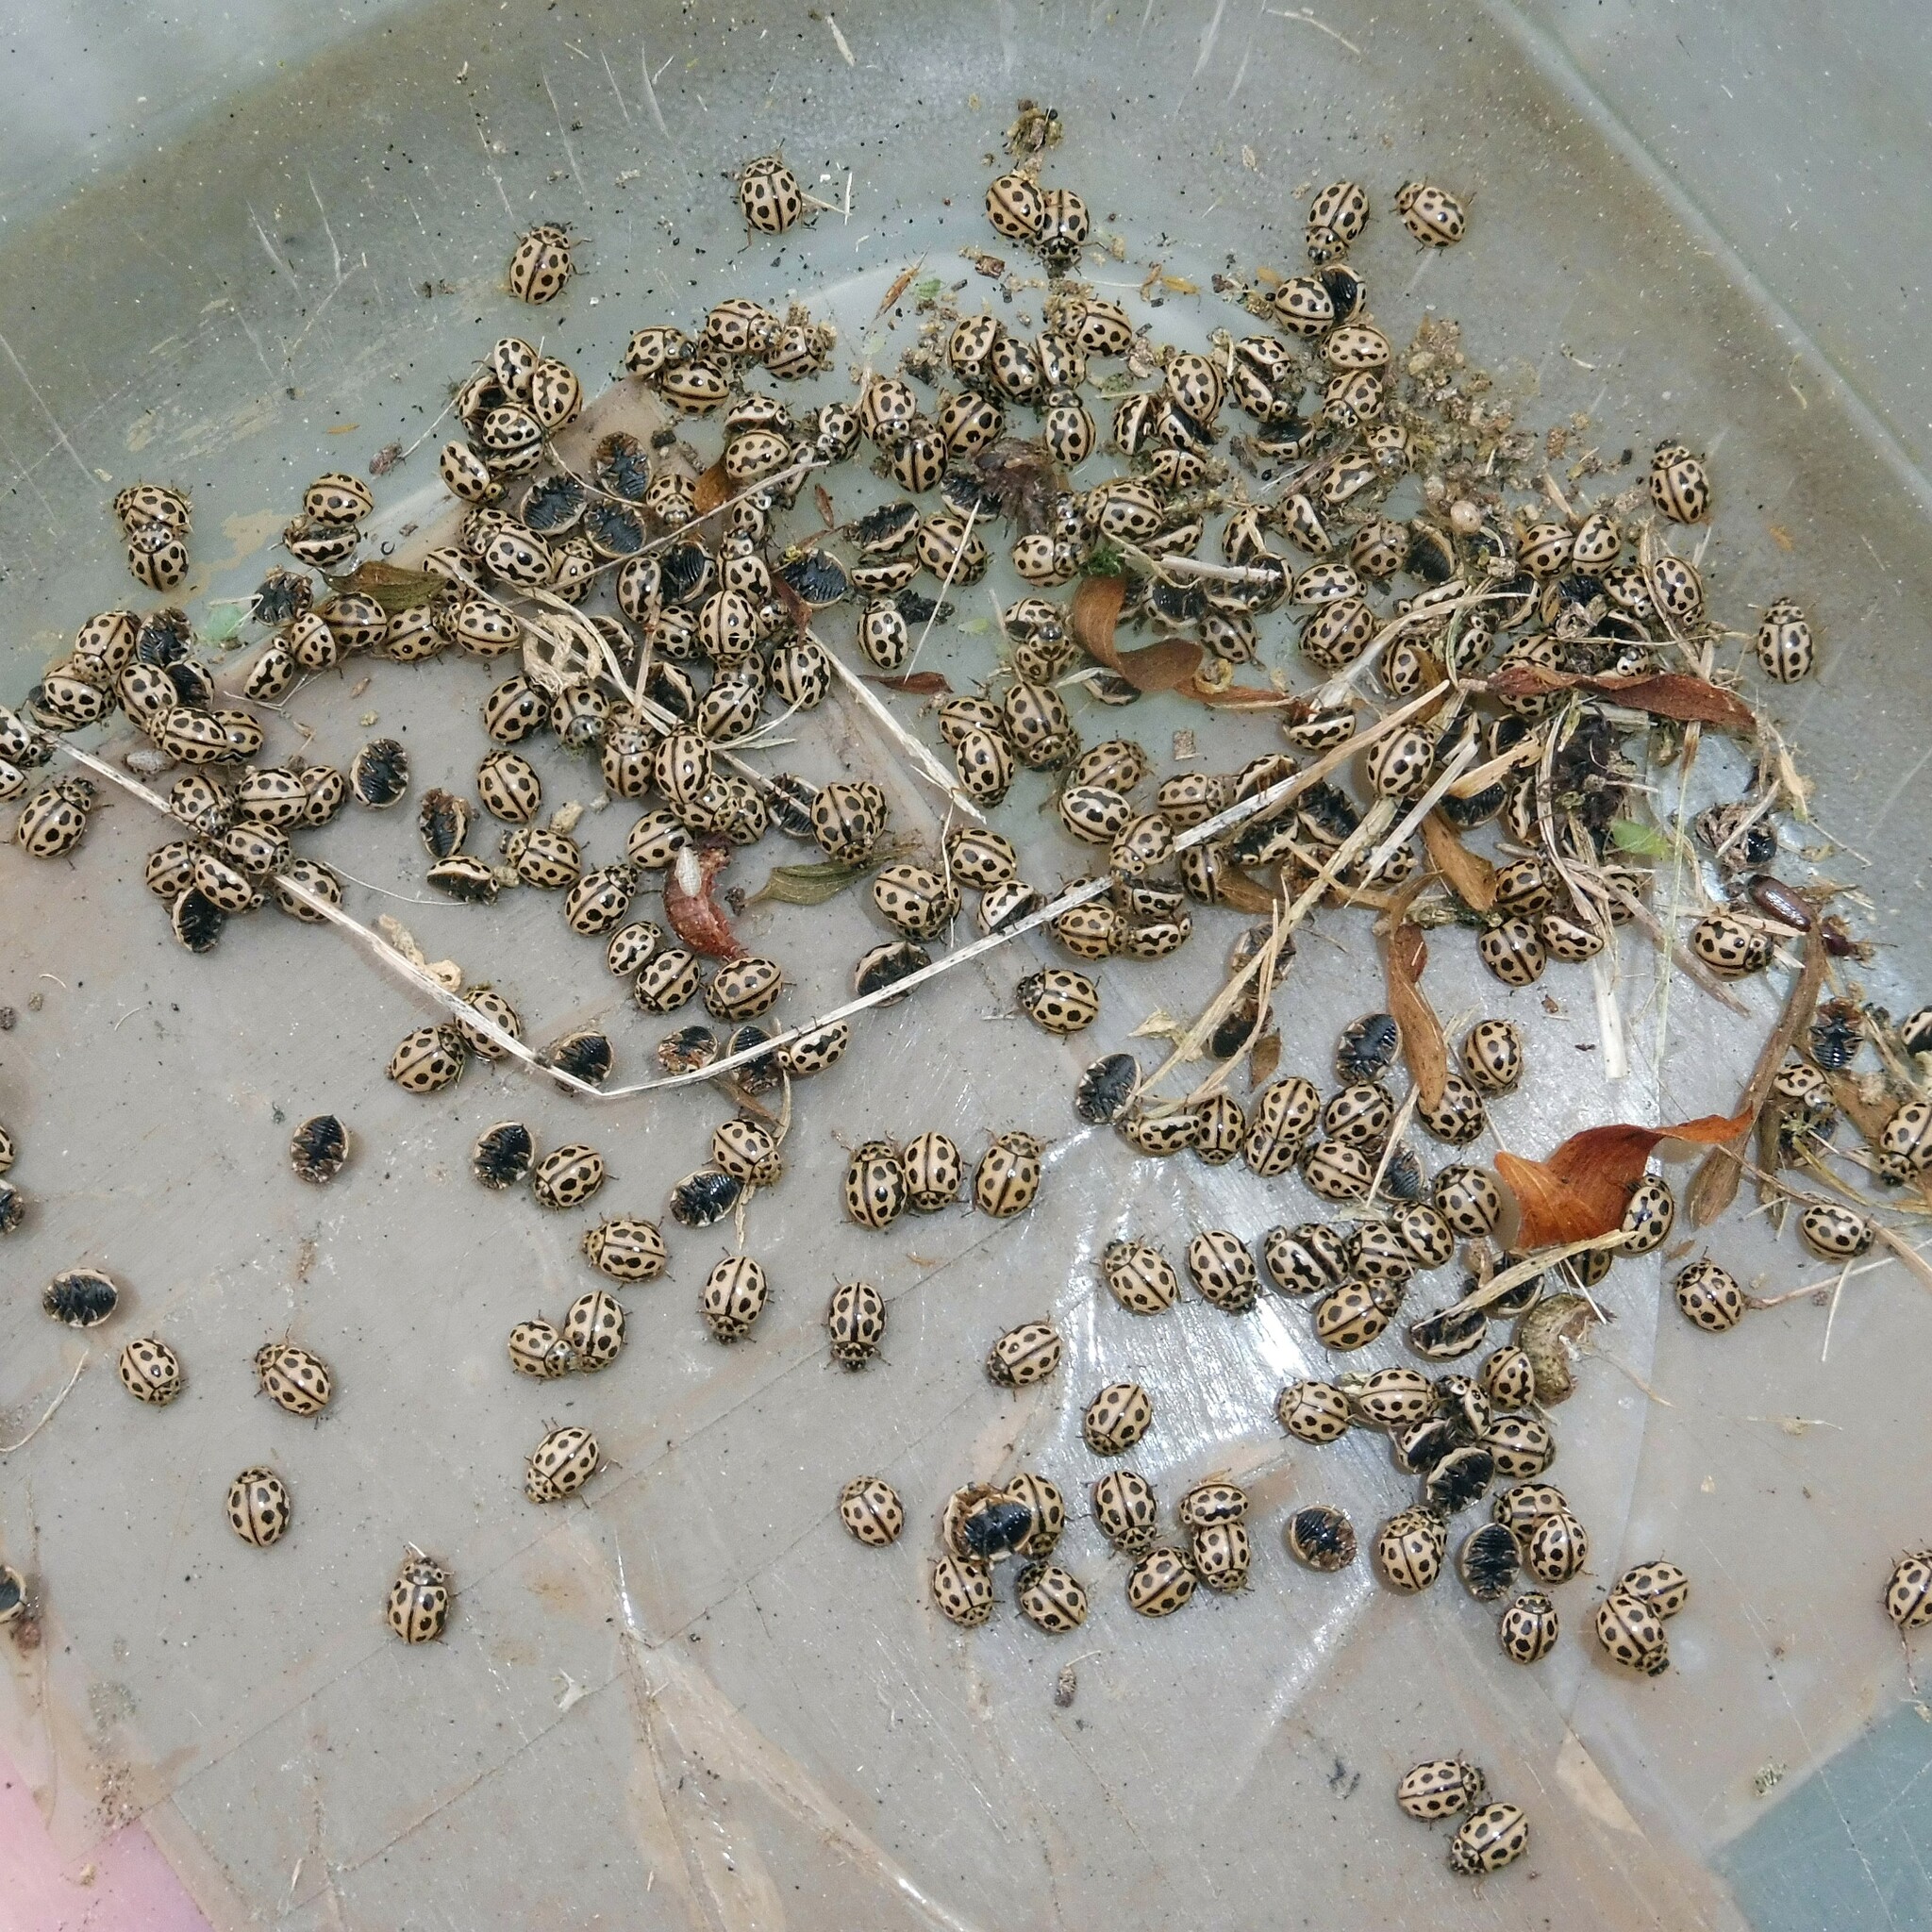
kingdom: Animalia
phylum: Arthropoda
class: Insecta
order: Coleoptera
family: Coccinellidae
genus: Tytthaspis
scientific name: Tytthaspis sedecimpunctata
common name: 16-spot ladybird
